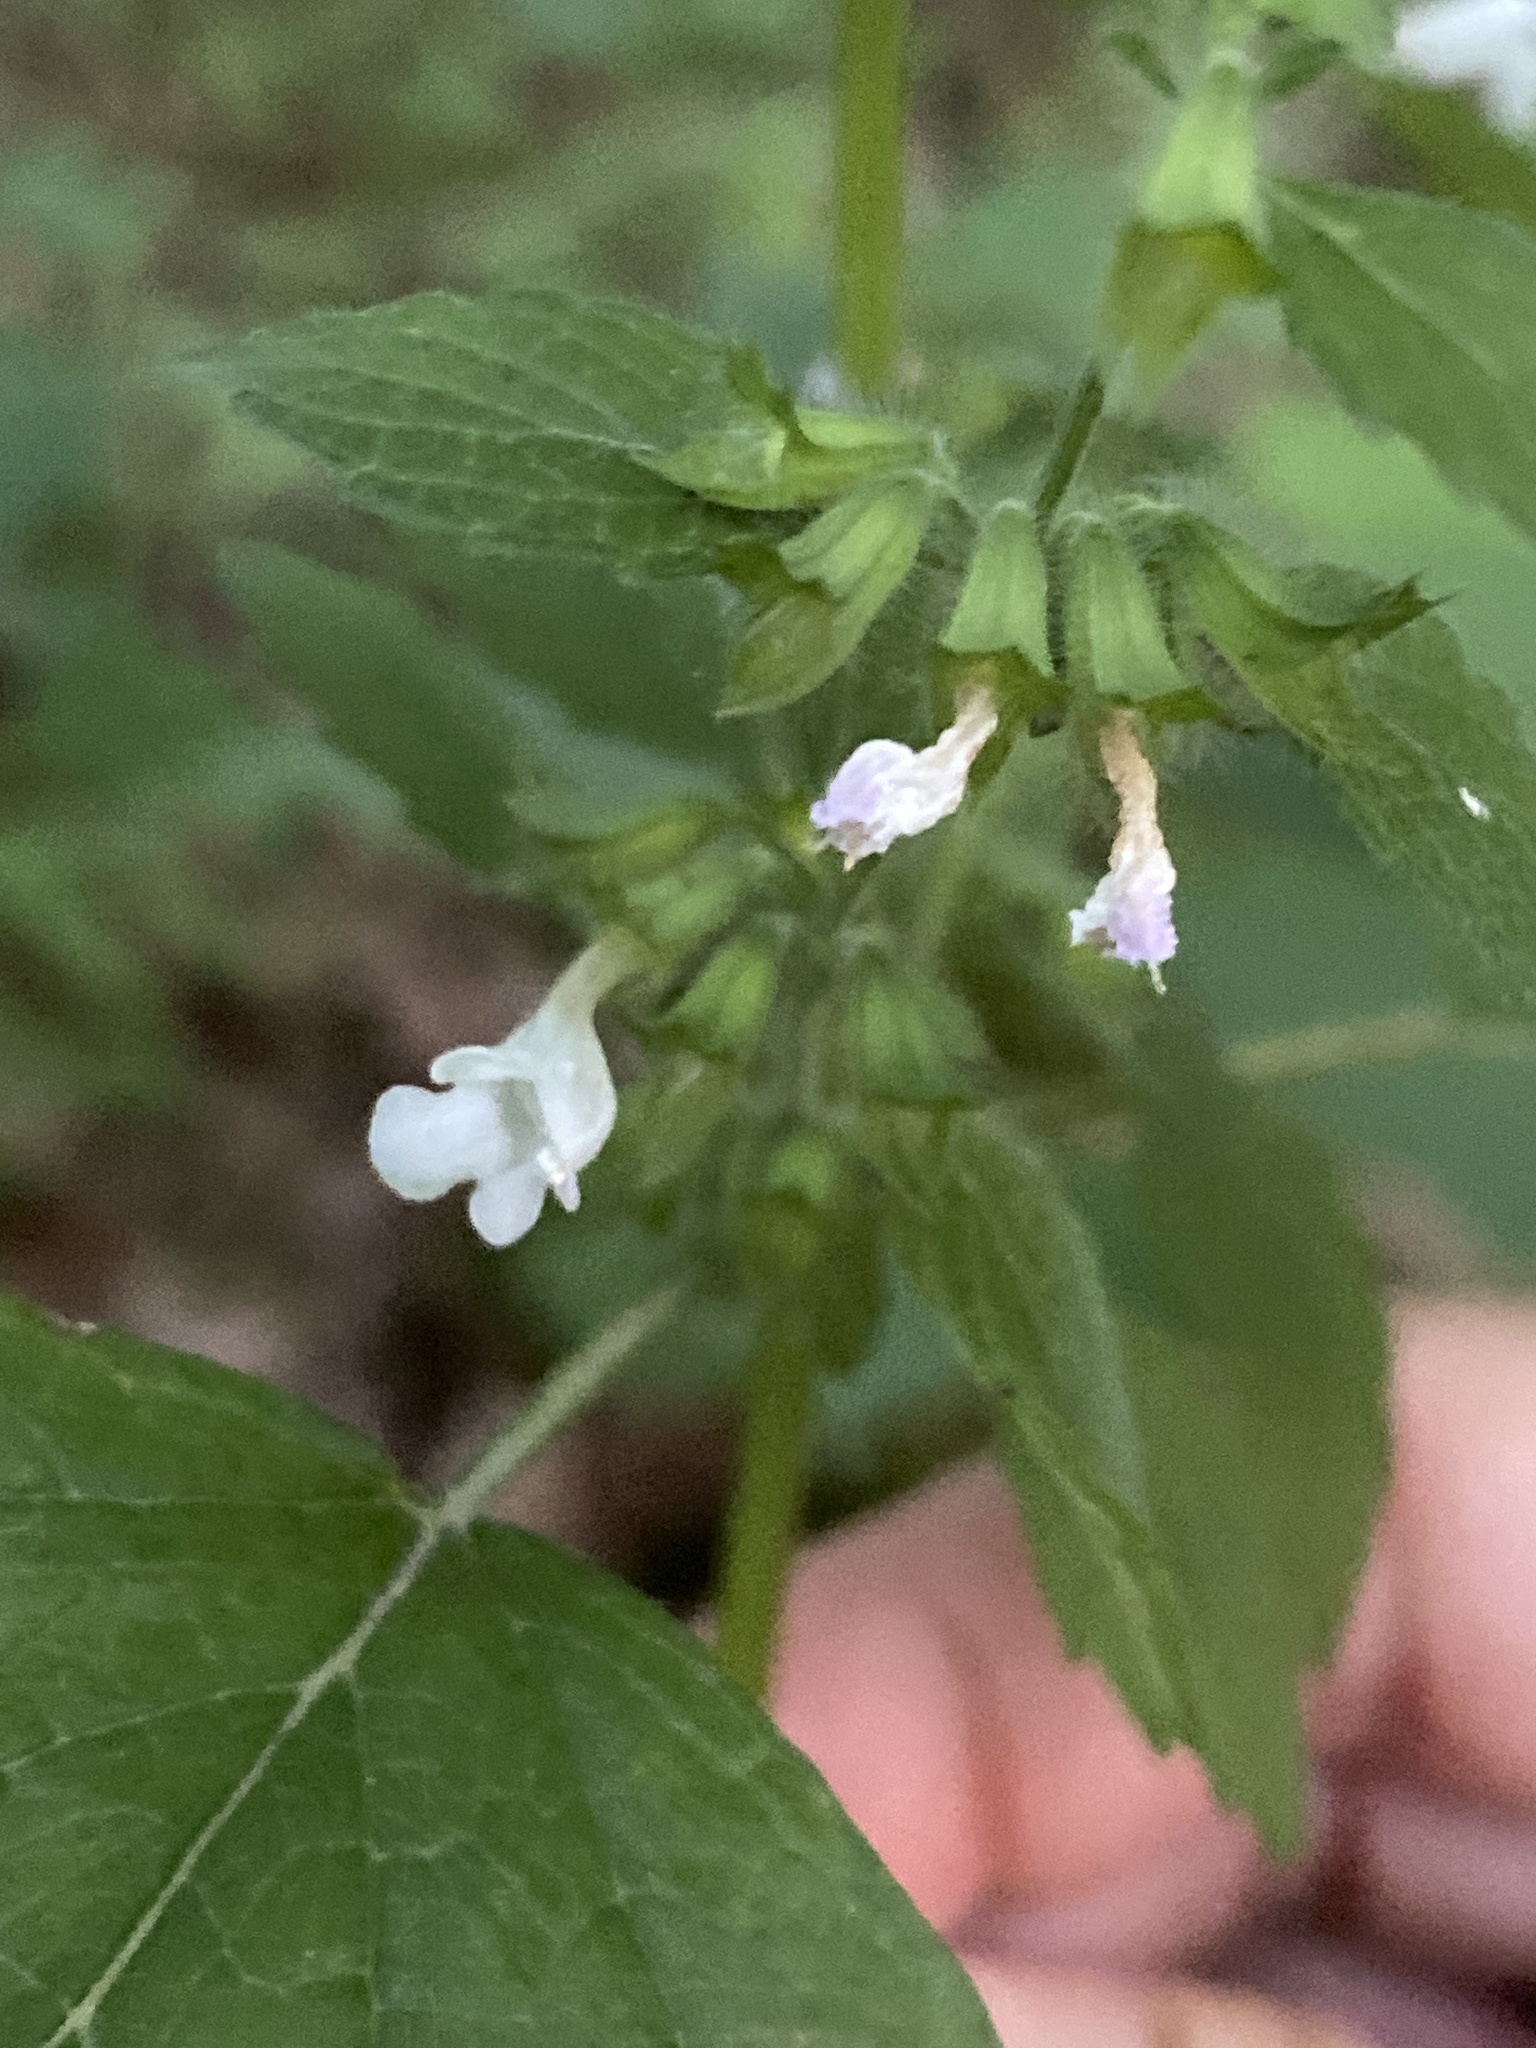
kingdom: Plantae
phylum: Tracheophyta
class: Magnoliopsida
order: Lamiales
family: Lamiaceae
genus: Melissa
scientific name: Melissa officinalis
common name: Balm
